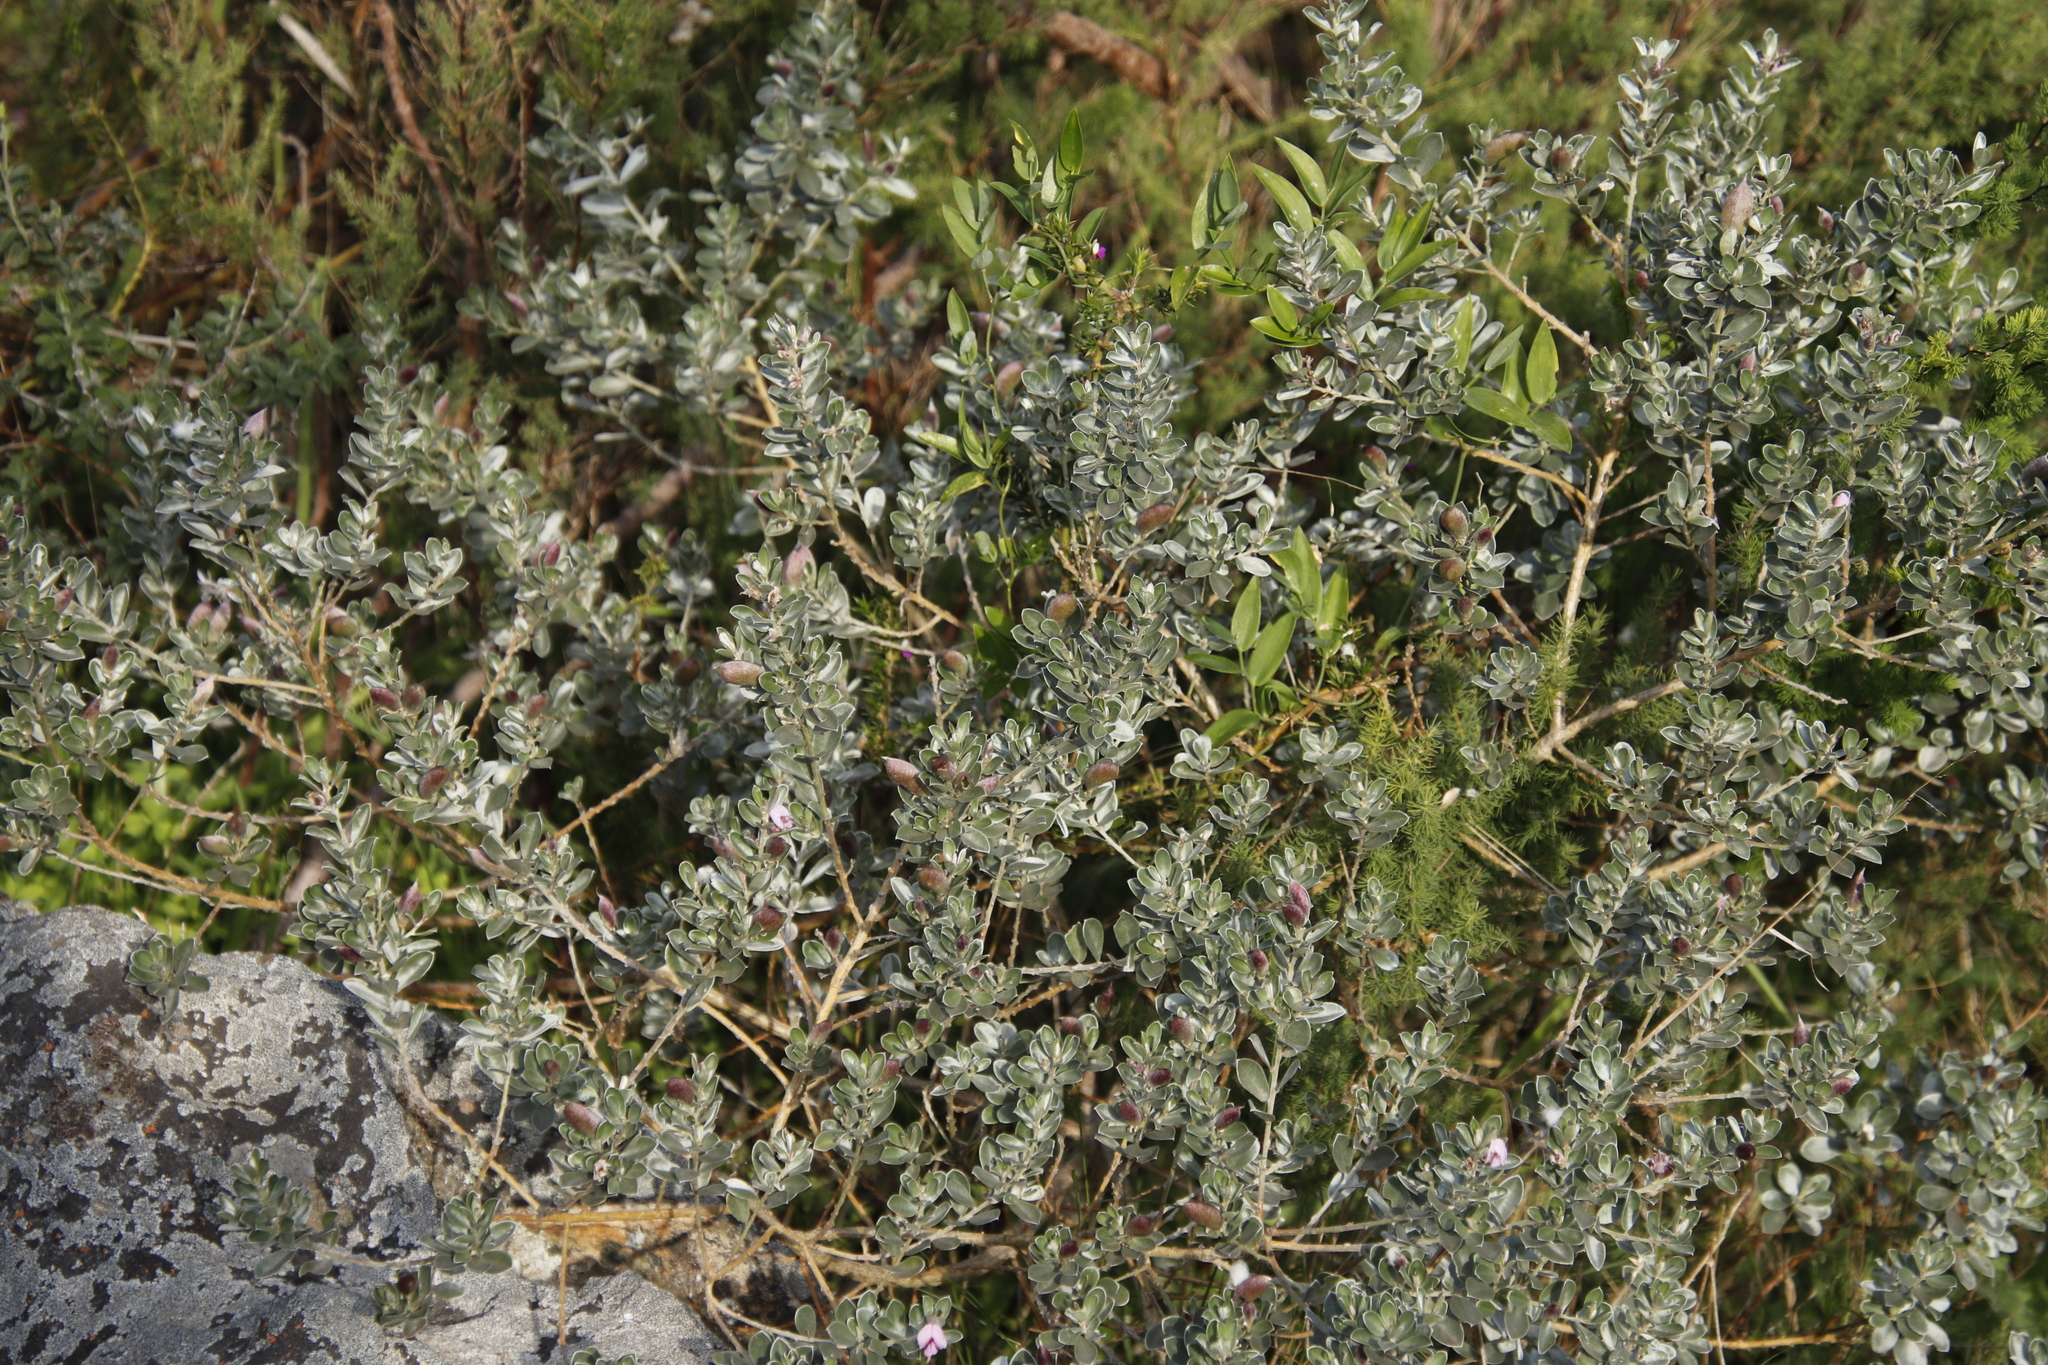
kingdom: Plantae
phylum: Tracheophyta
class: Magnoliopsida
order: Fabales
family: Fabaceae
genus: Podalyria
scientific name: Podalyria sericea
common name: Silver podalyria
